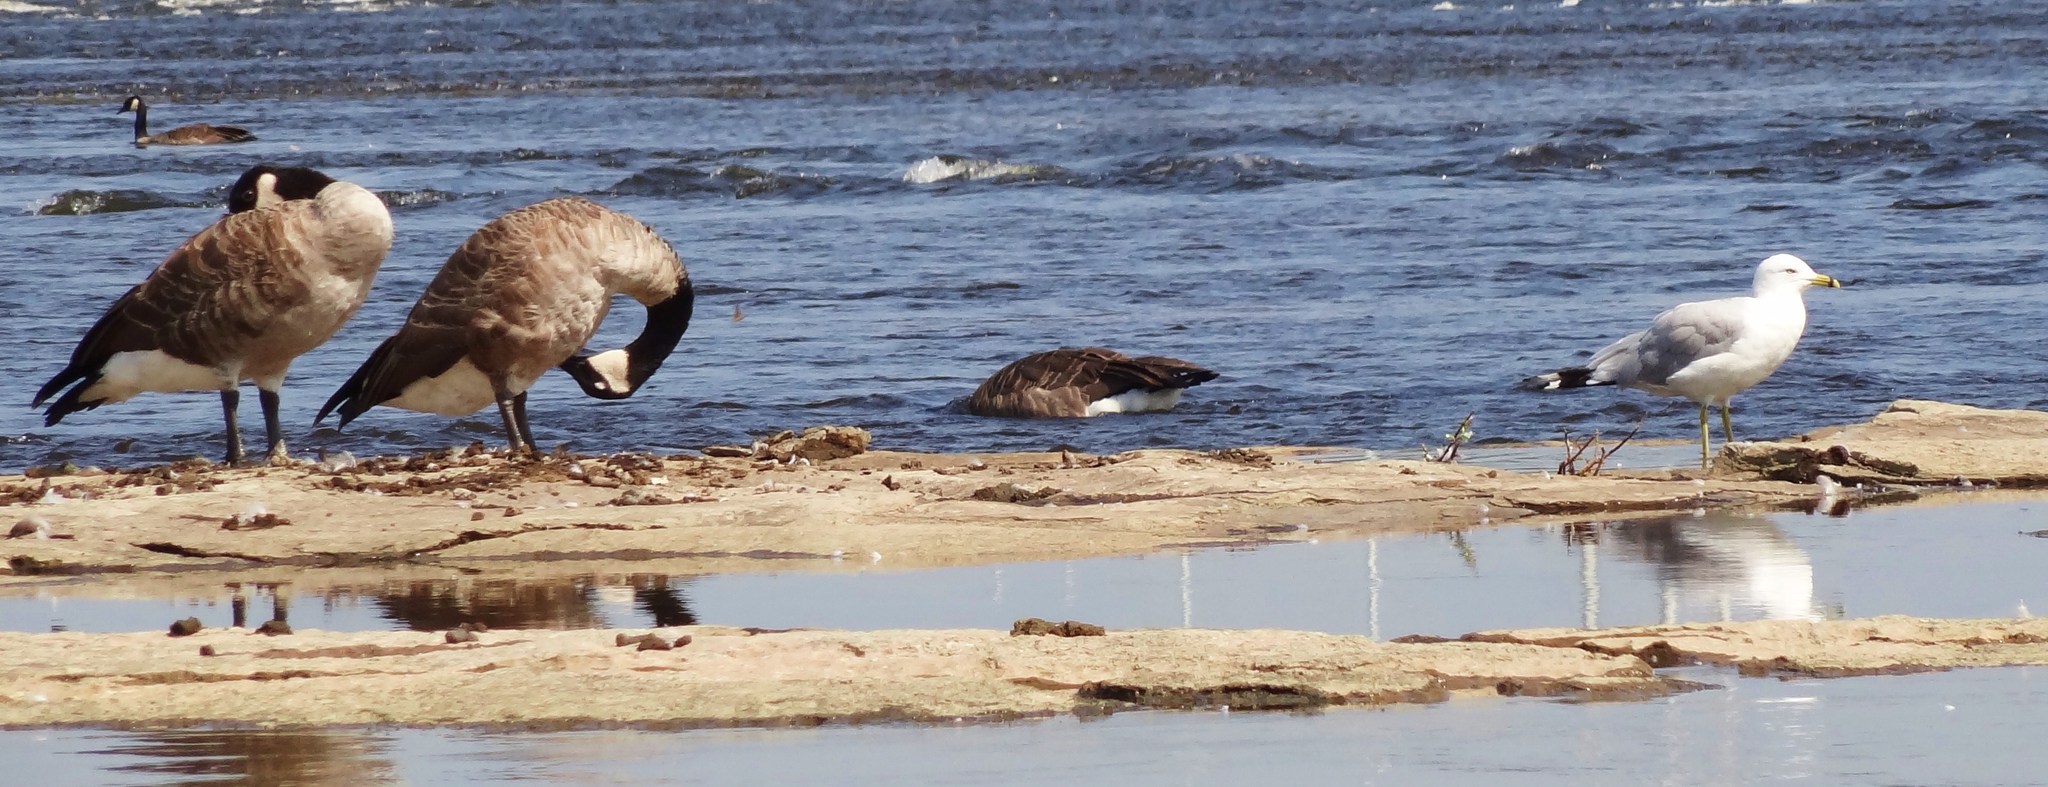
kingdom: Animalia
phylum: Chordata
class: Aves
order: Anseriformes
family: Anatidae
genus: Branta
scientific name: Branta canadensis
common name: Canada goose
